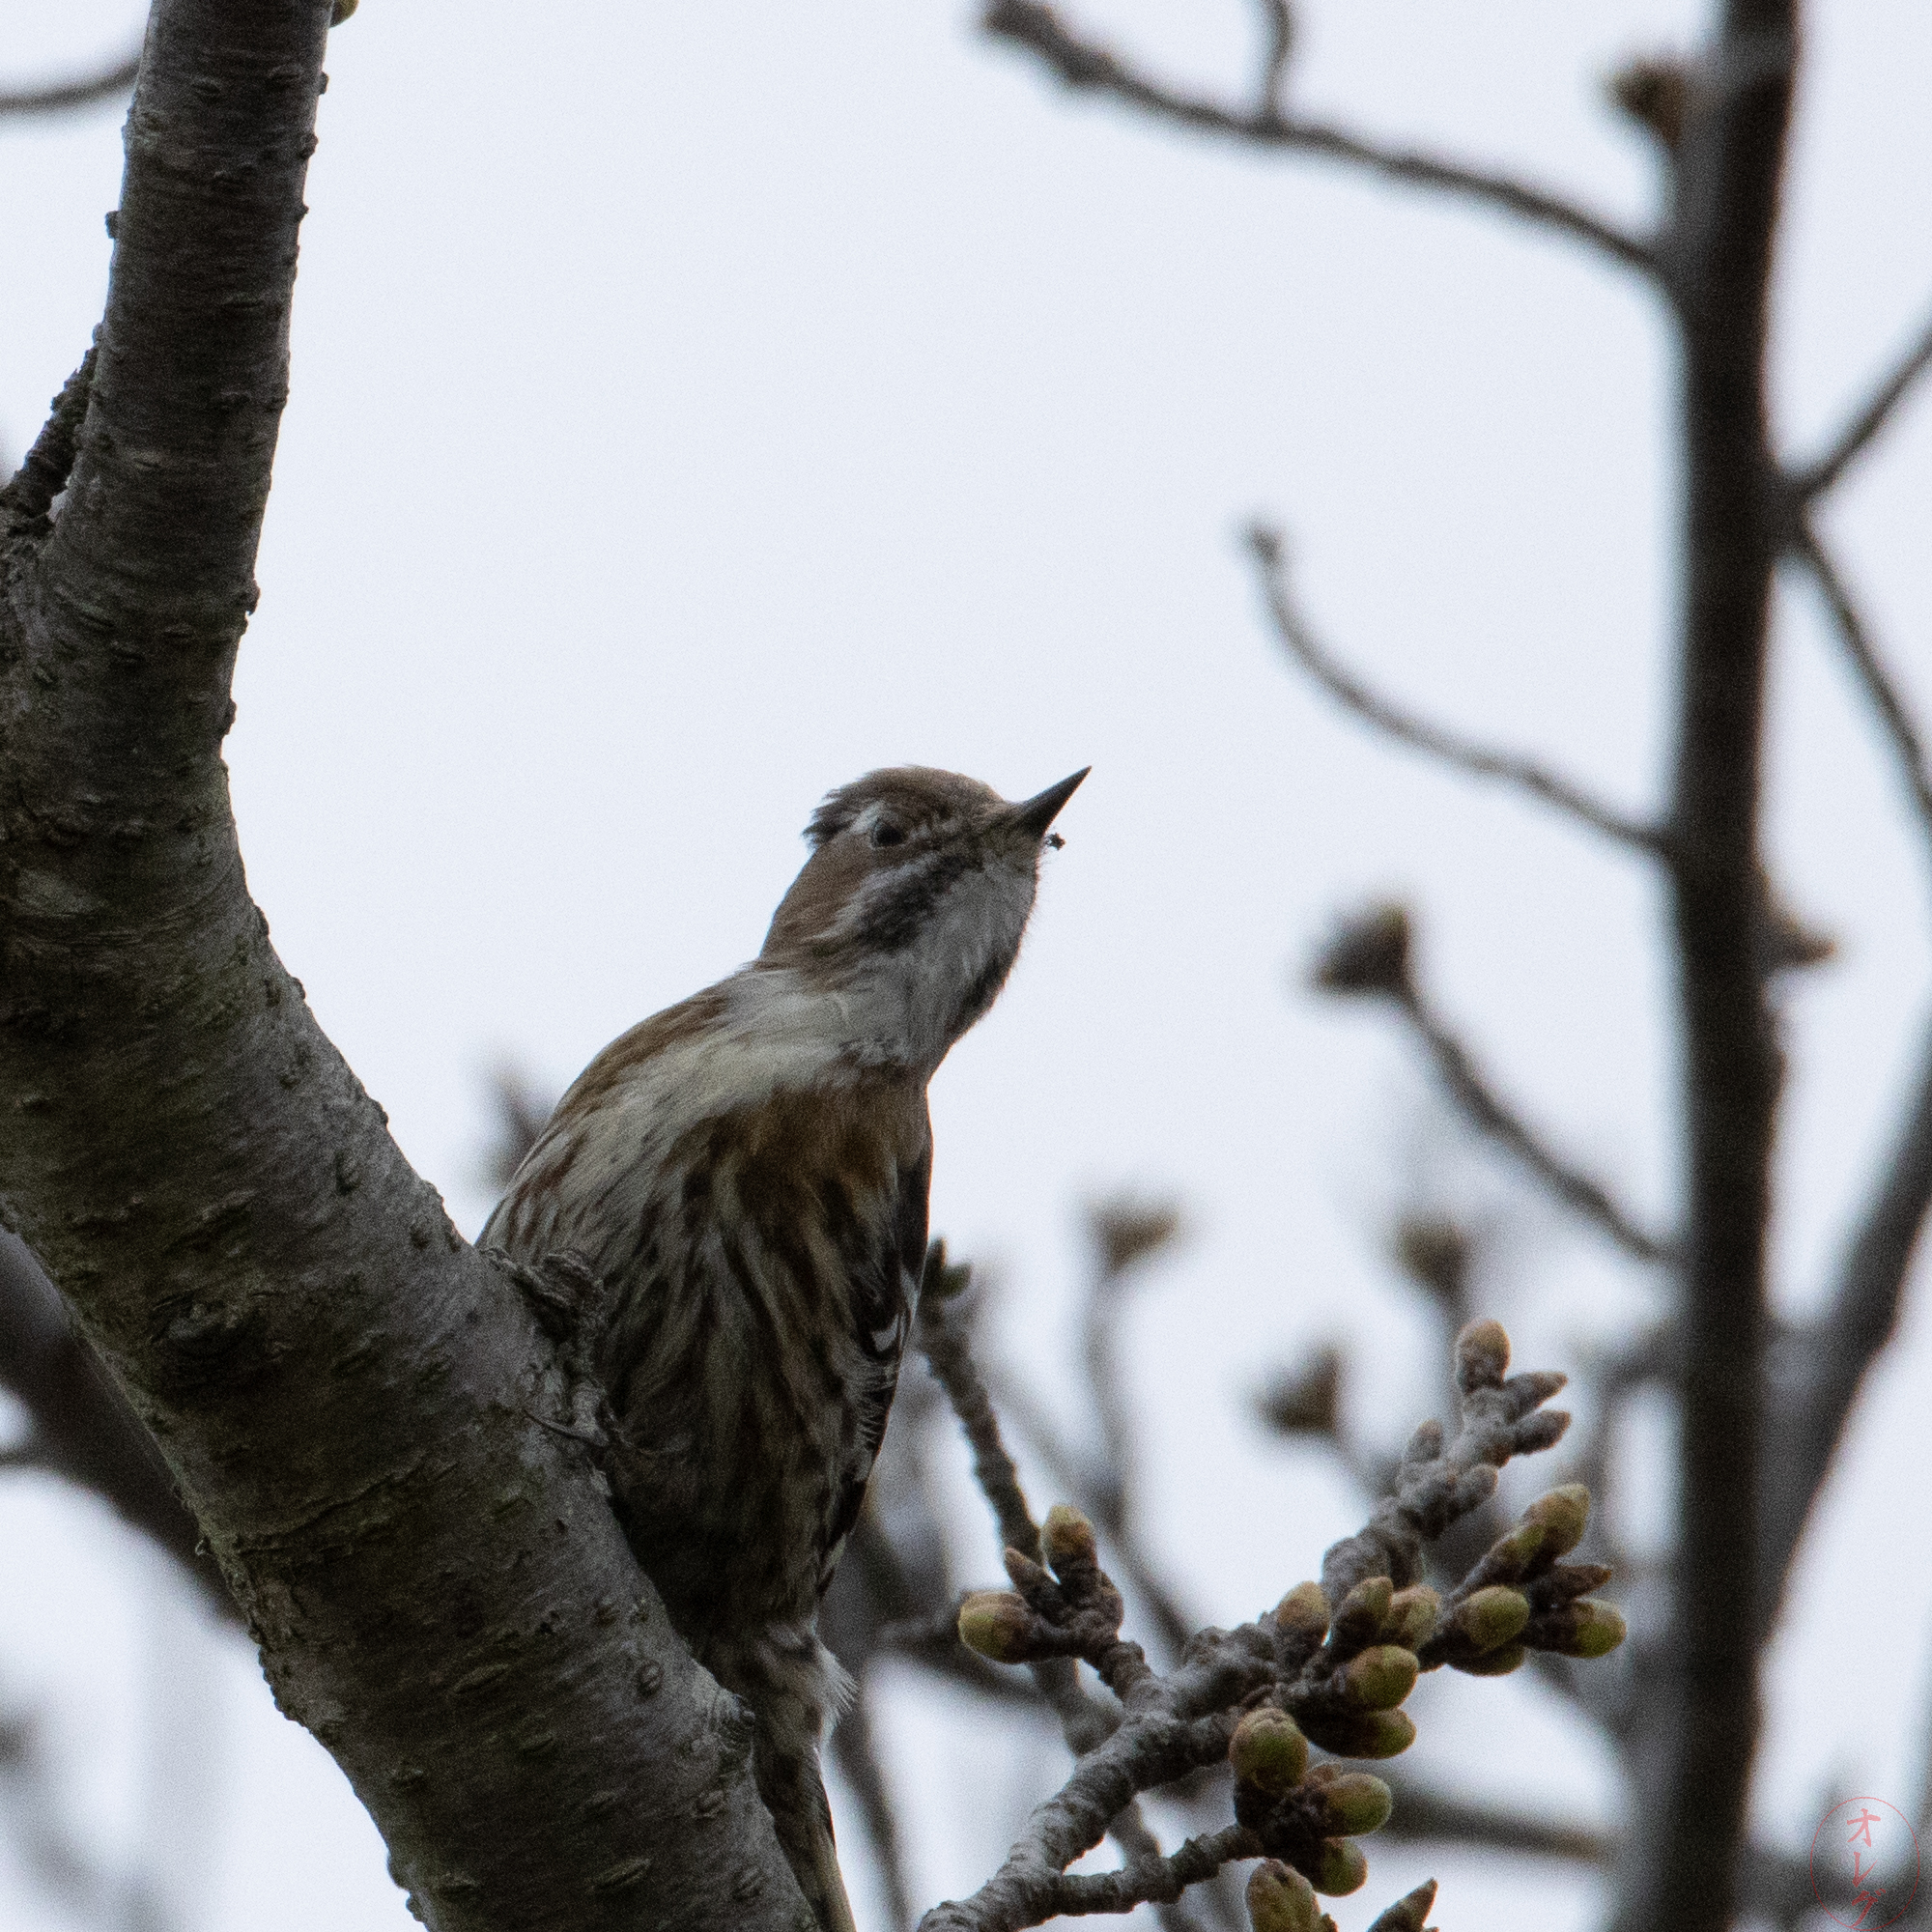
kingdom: Animalia
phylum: Chordata
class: Aves
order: Piciformes
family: Picidae
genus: Yungipicus
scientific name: Yungipicus kizuki
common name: Japanese pygmy woodpecker
